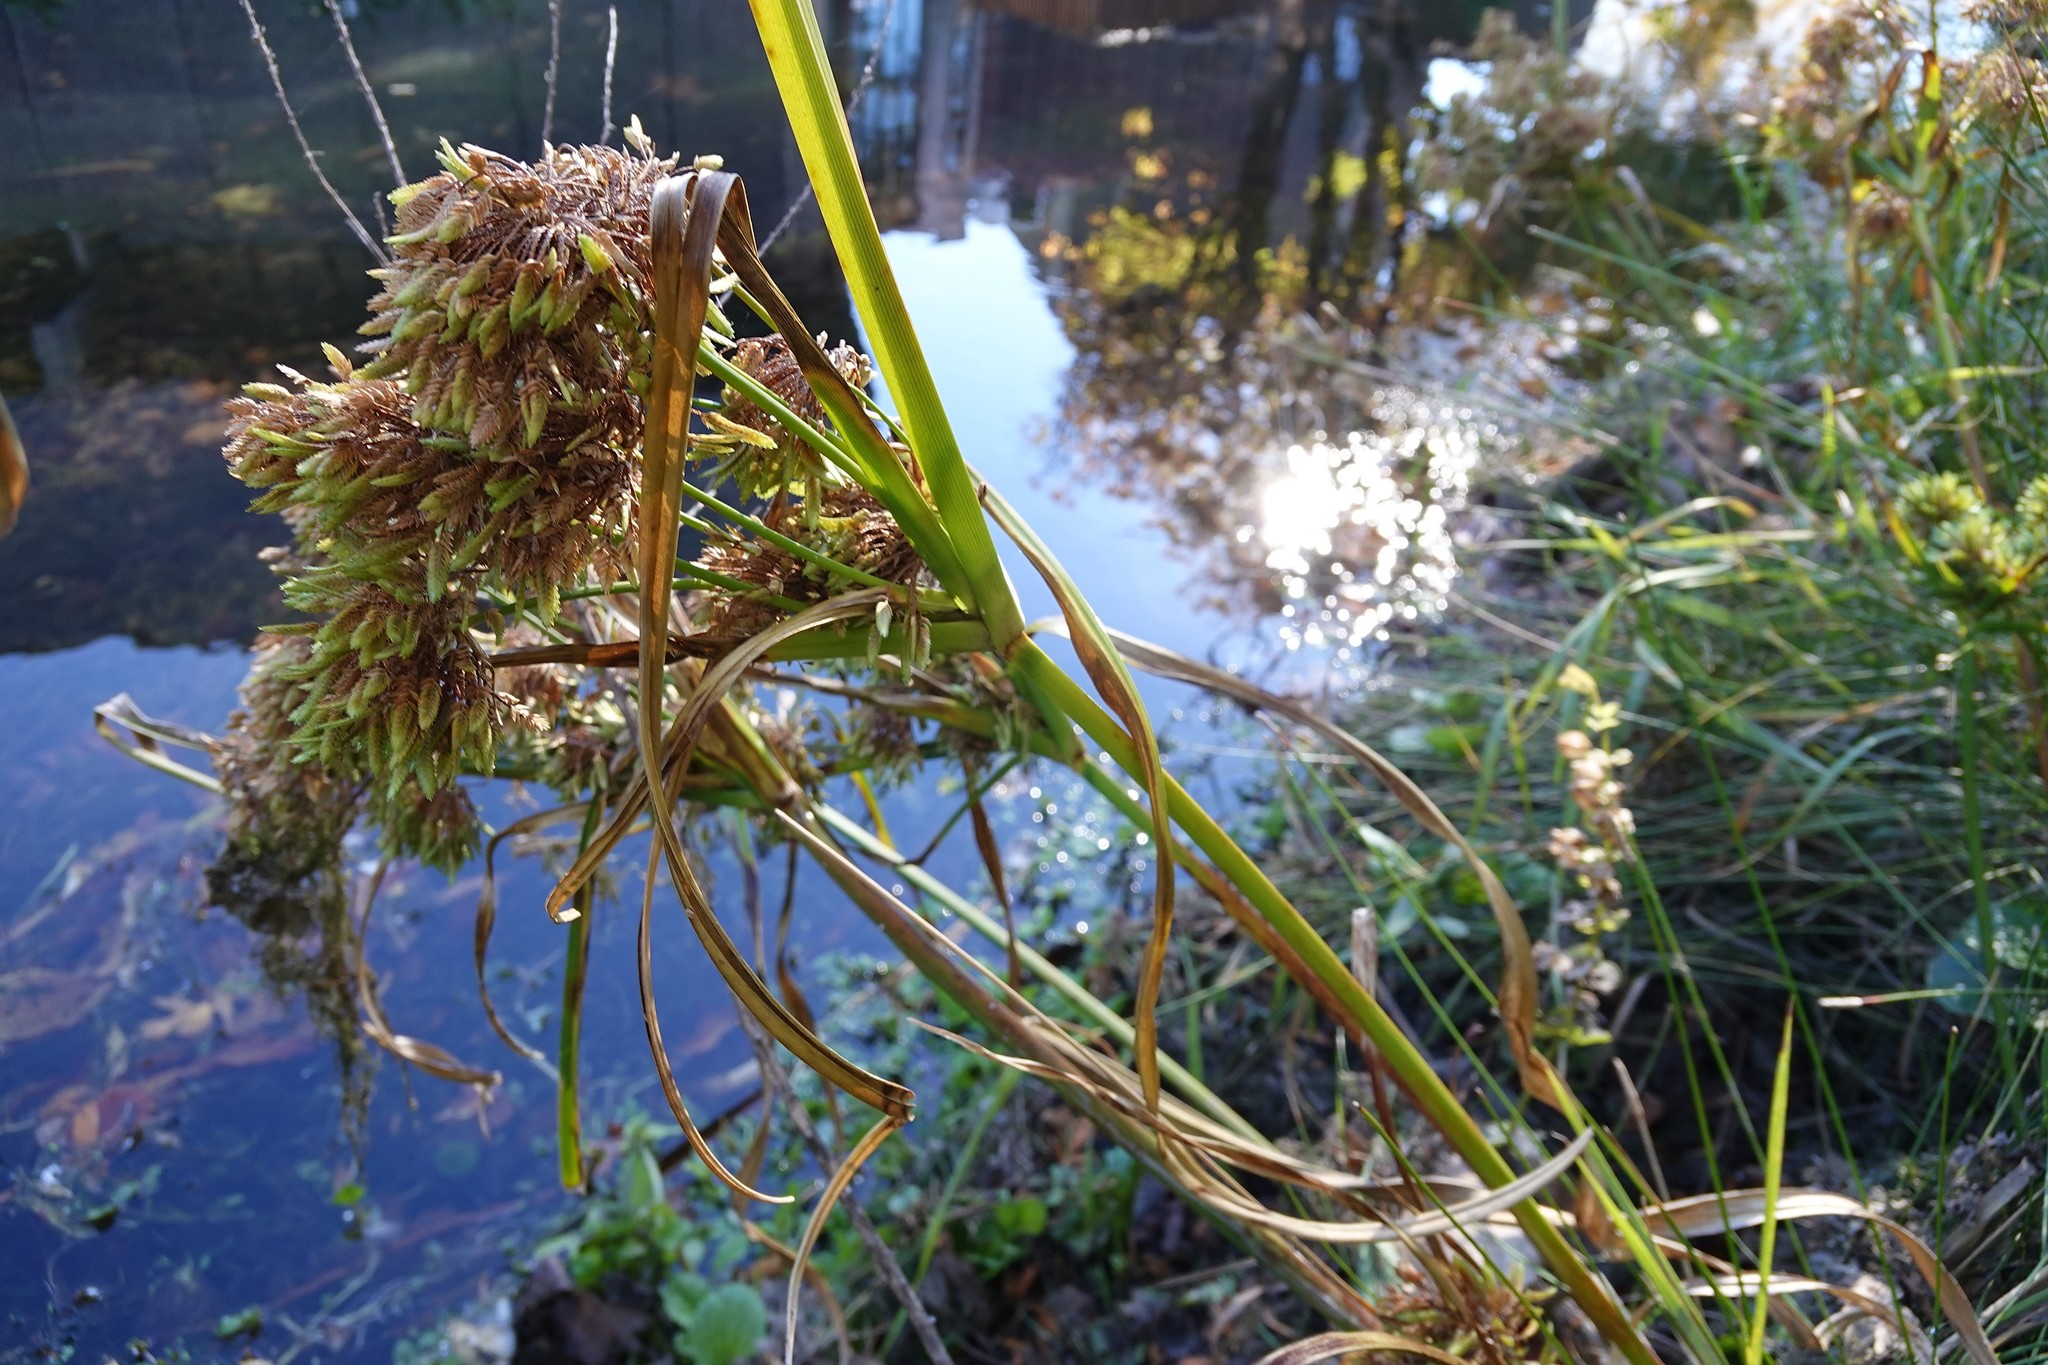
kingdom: Plantae
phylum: Tracheophyta
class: Liliopsida
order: Poales
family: Cyperaceae
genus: Cyperus
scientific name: Cyperus eragrostis
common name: Tall flatsedge
